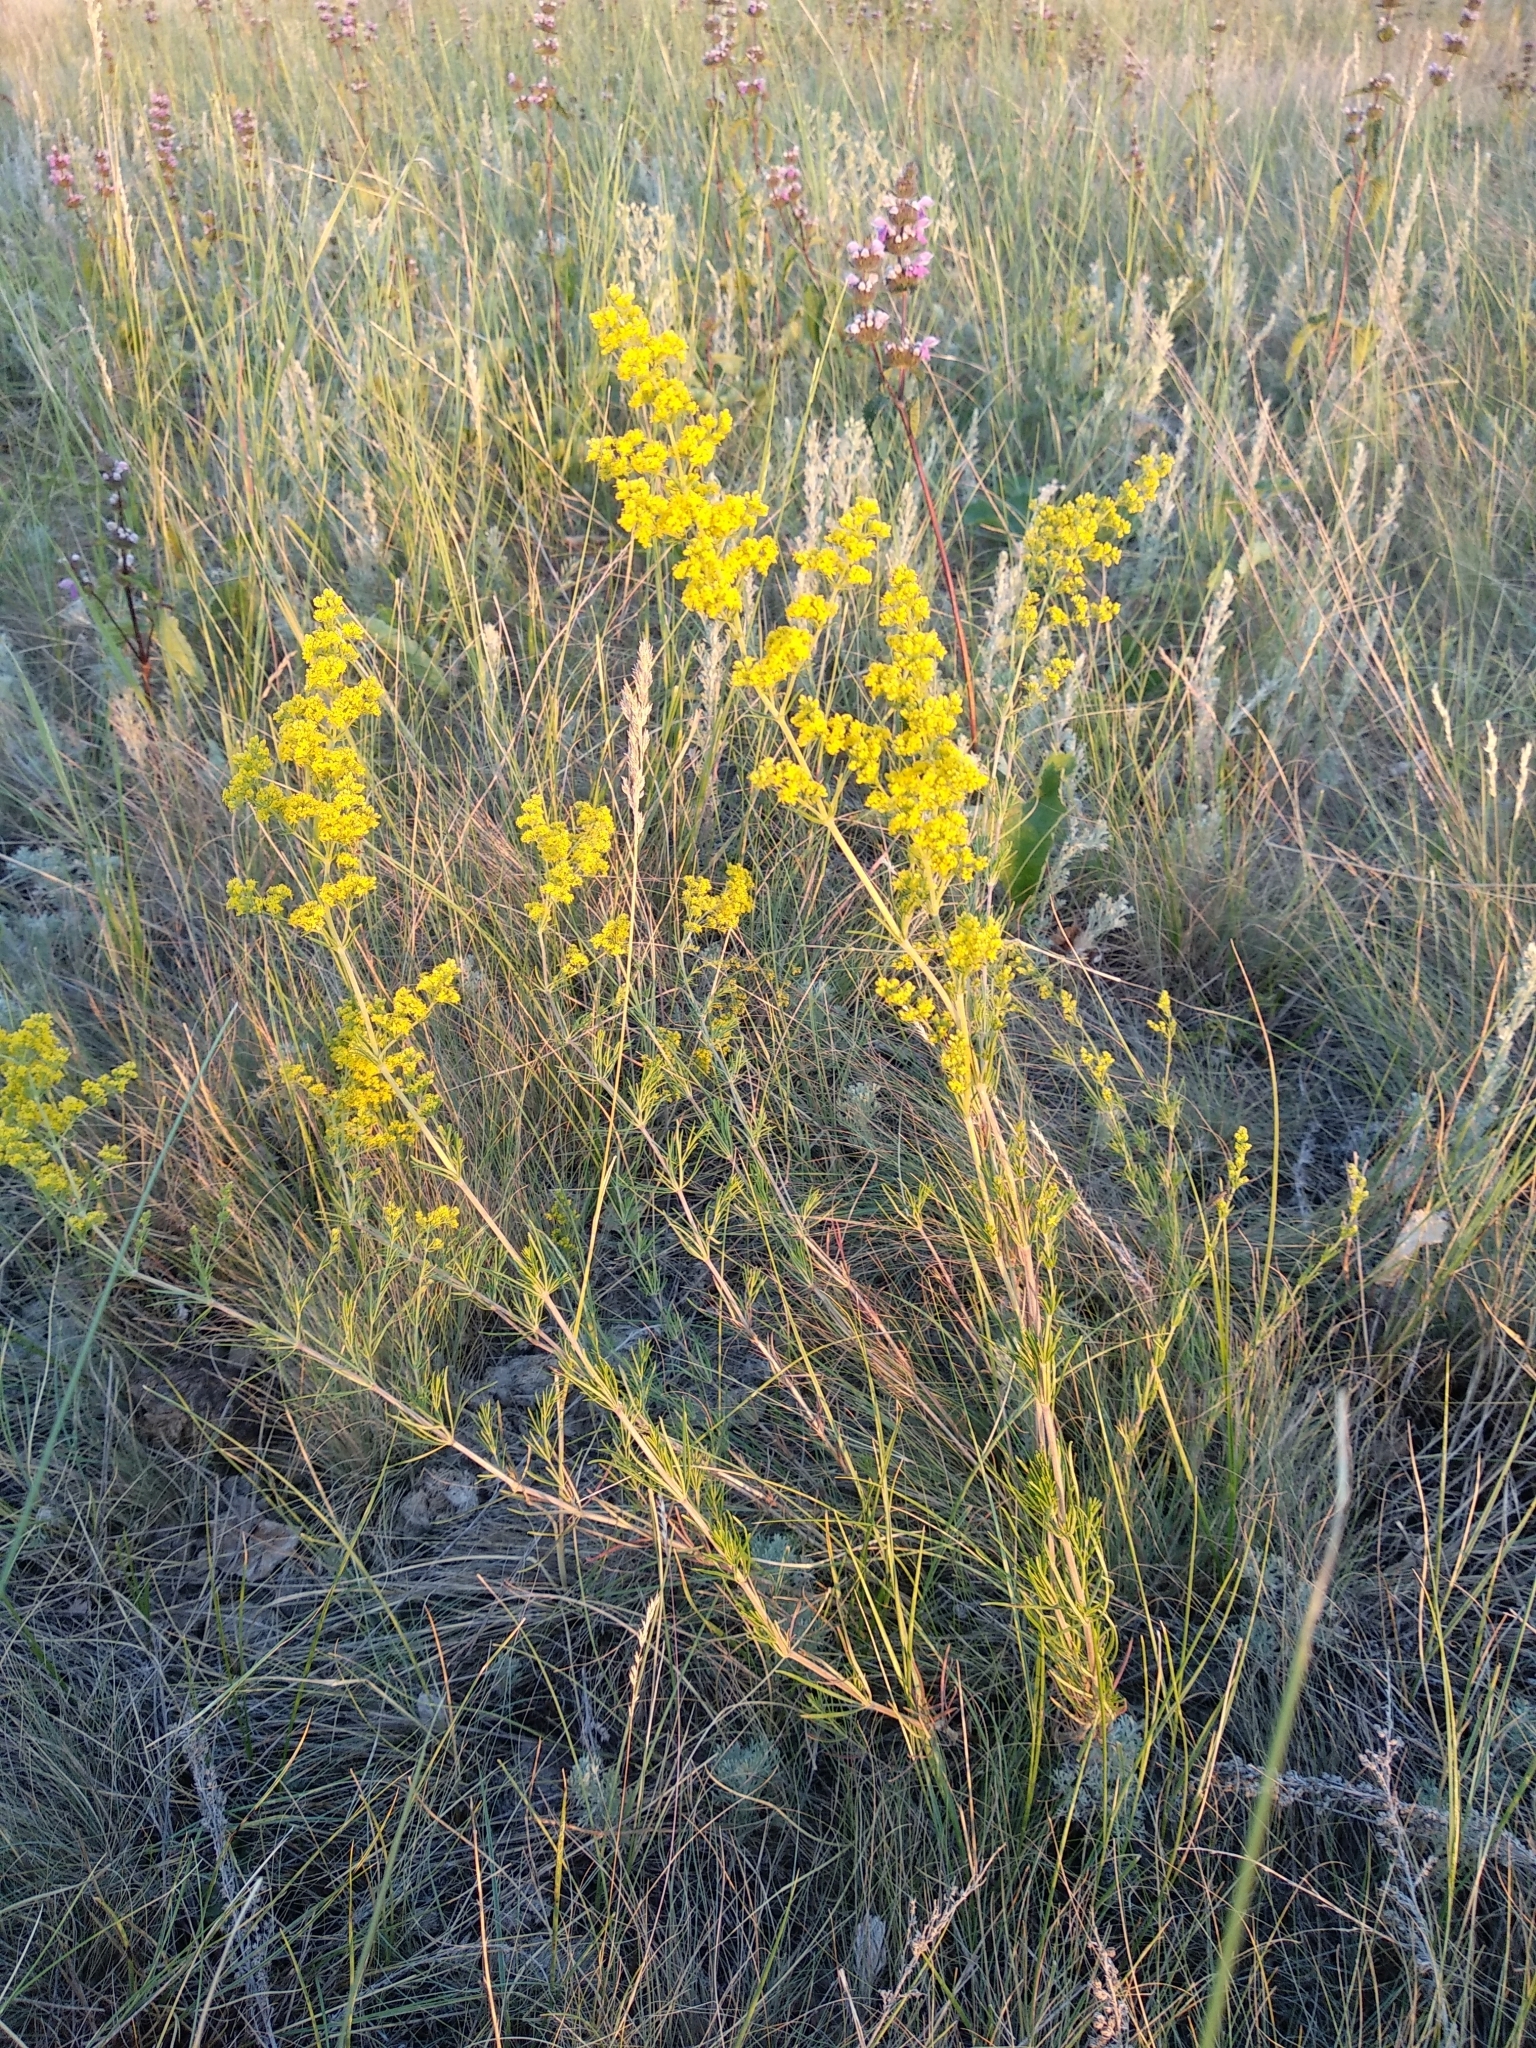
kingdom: Plantae
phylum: Tracheophyta
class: Magnoliopsida
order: Gentianales
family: Rubiaceae
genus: Galium
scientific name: Galium verum
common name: Lady's bedstraw
